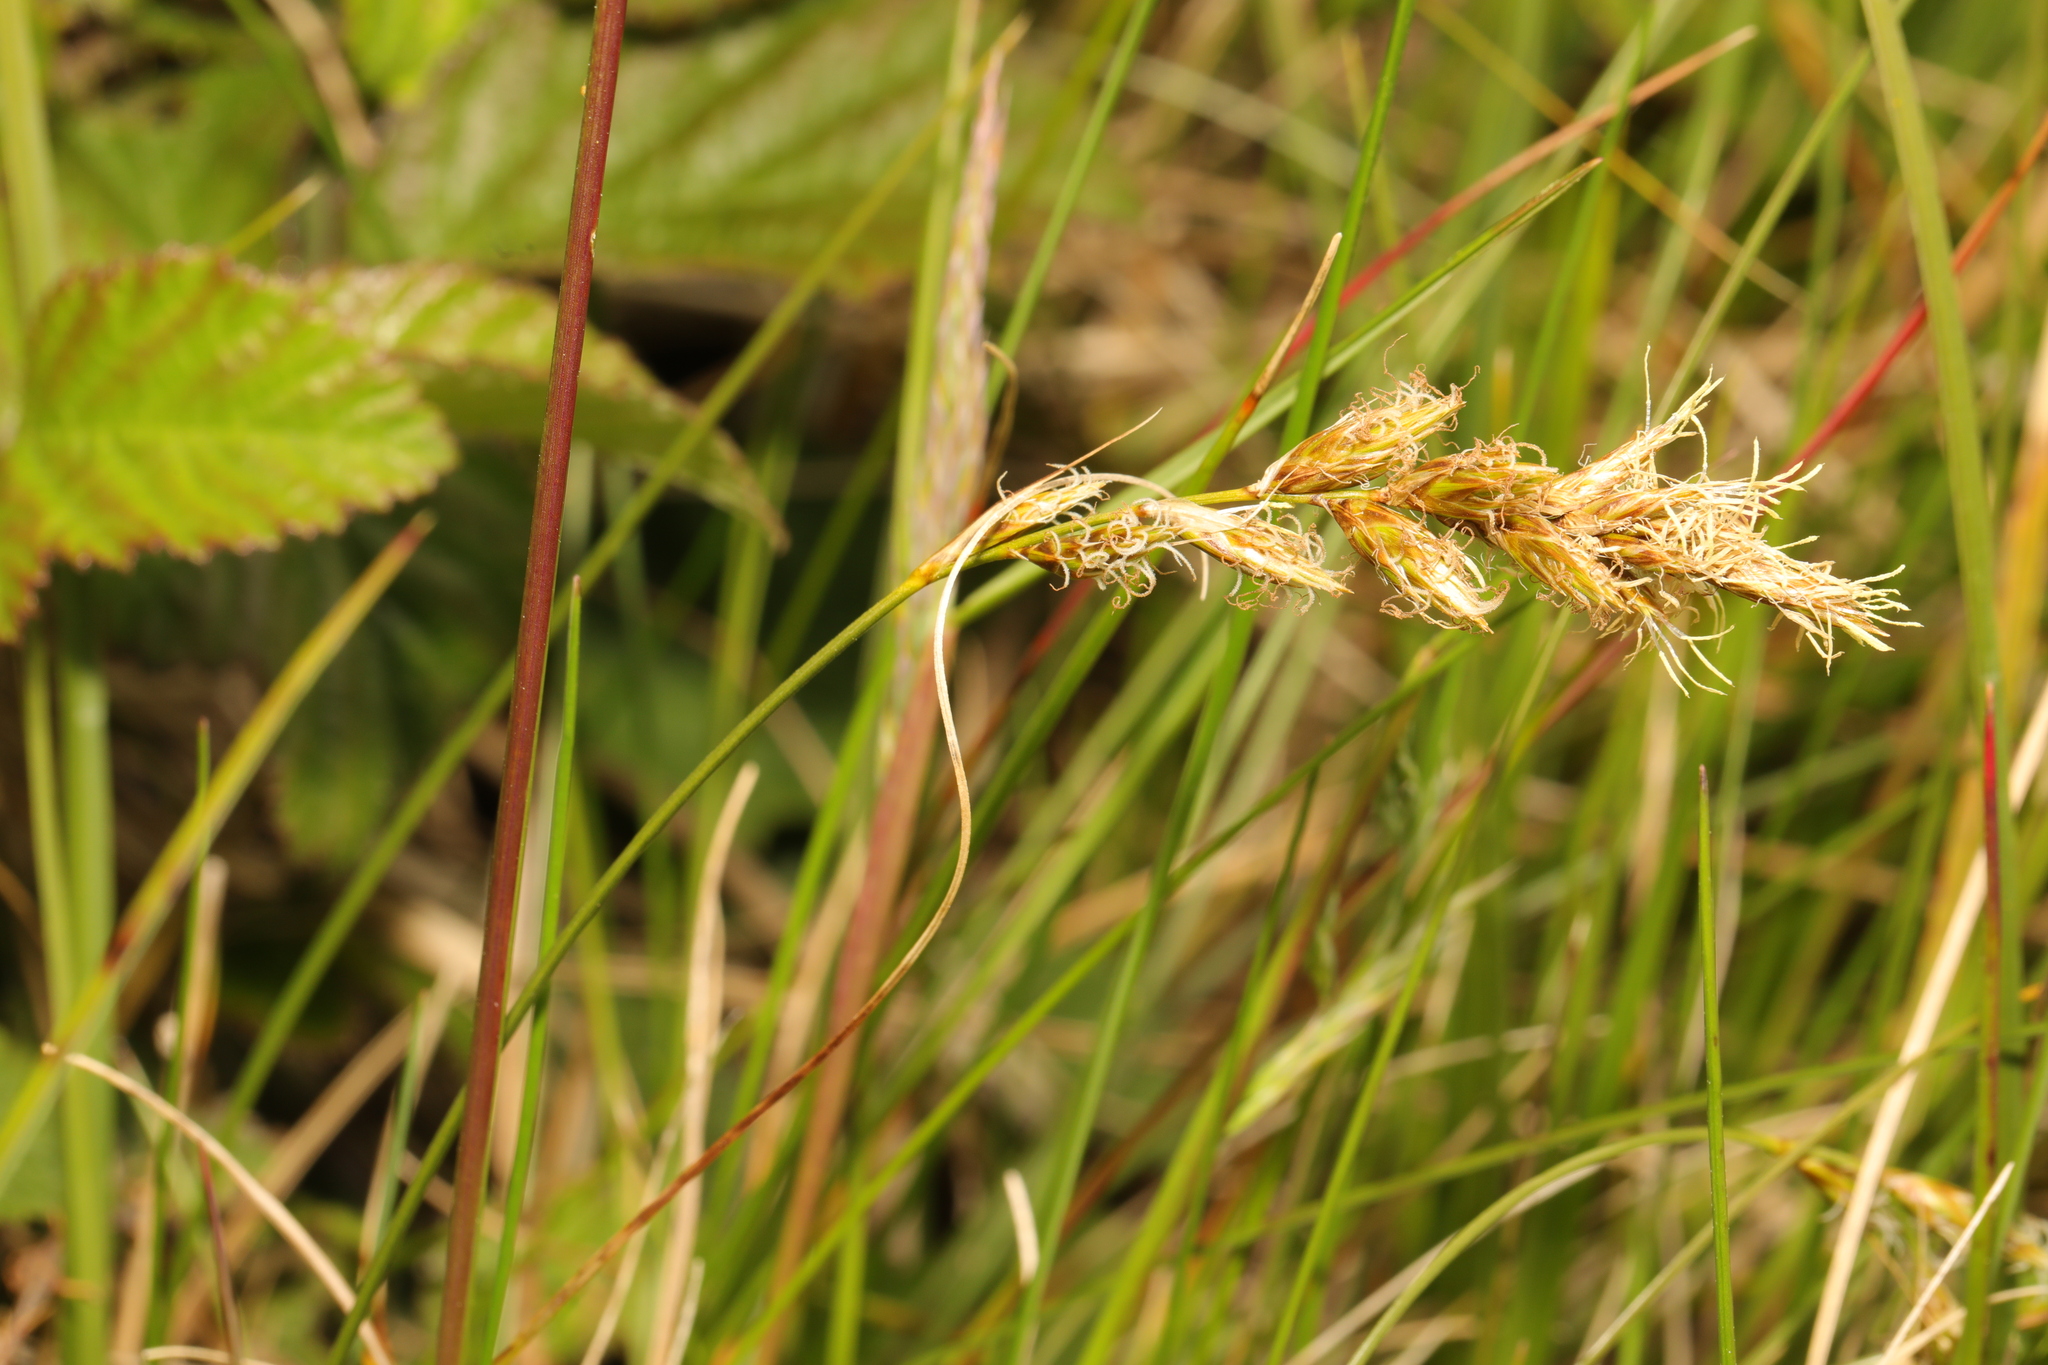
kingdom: Plantae
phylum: Tracheophyta
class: Liliopsida
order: Poales
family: Cyperaceae
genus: Carex
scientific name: Carex arenaria
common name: Sand sedge
